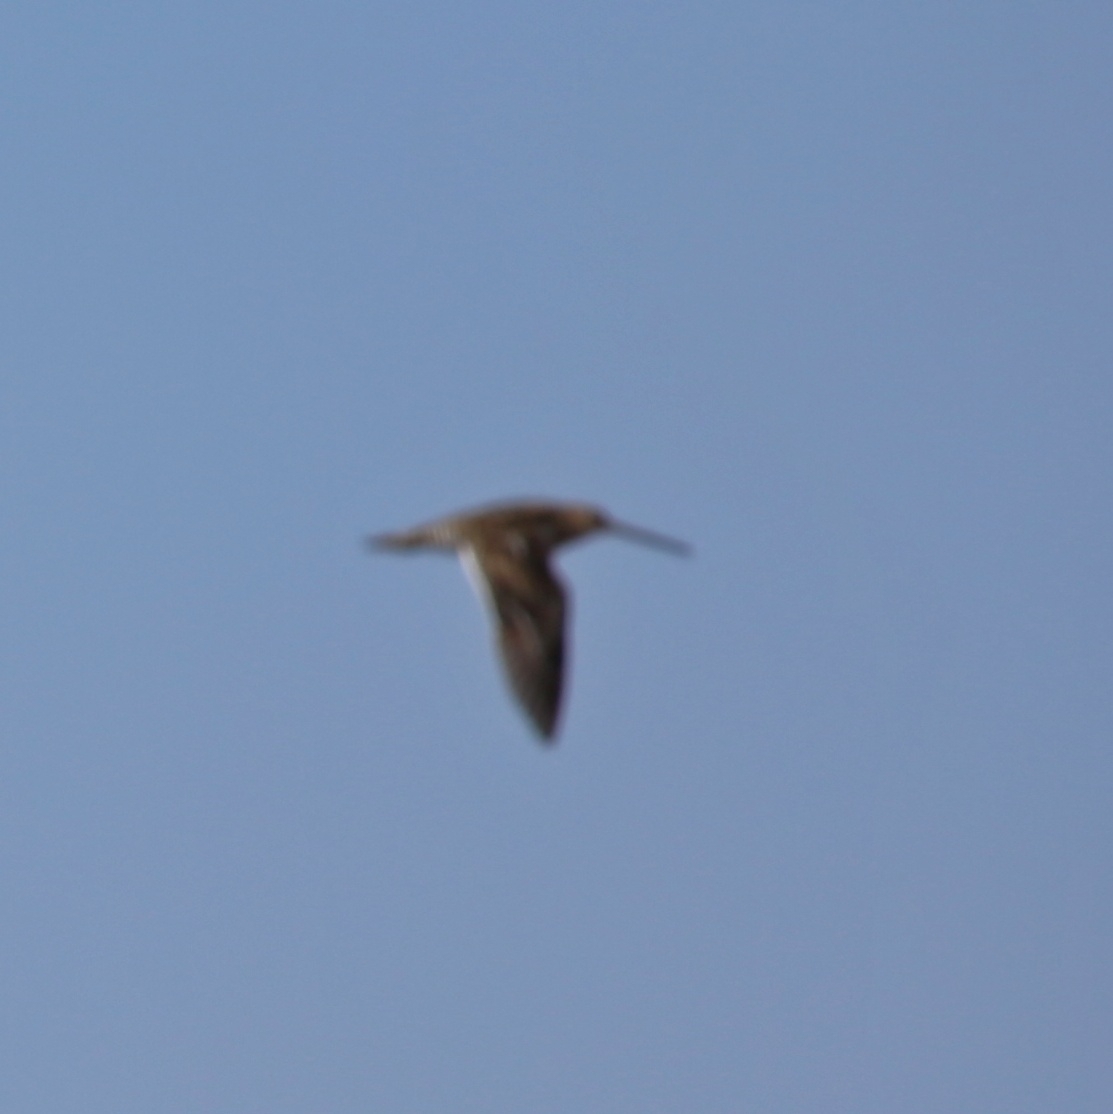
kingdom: Animalia
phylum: Chordata
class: Aves
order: Charadriiformes
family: Scolopacidae
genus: Gallinago
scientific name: Gallinago gallinago
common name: Common snipe
